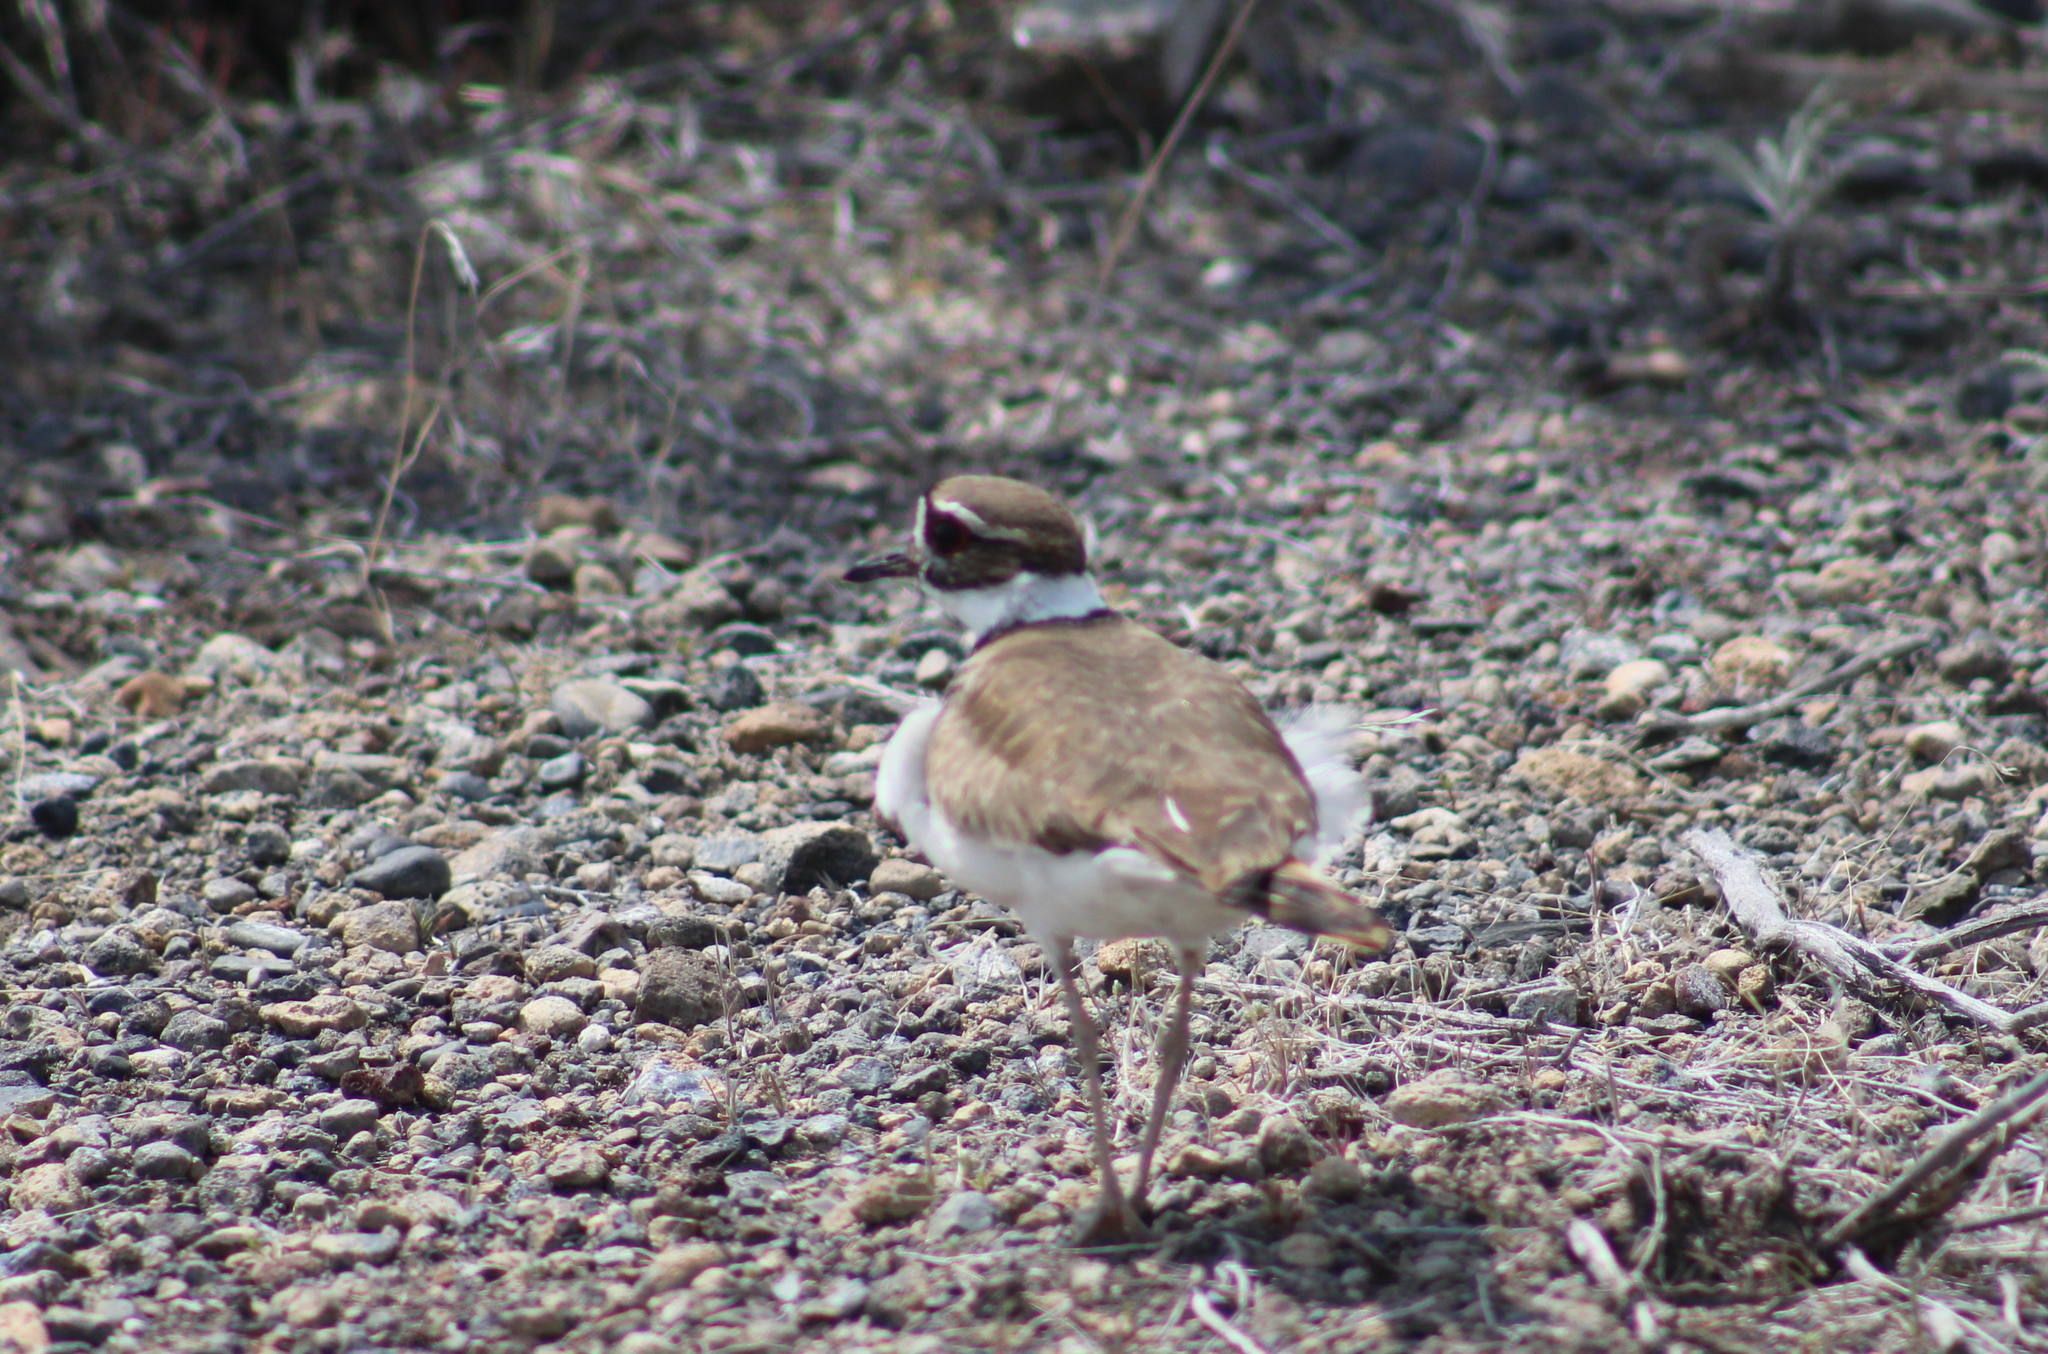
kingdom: Animalia
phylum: Chordata
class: Aves
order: Charadriiformes
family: Charadriidae
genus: Charadrius
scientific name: Charadrius vociferus
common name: Killdeer
